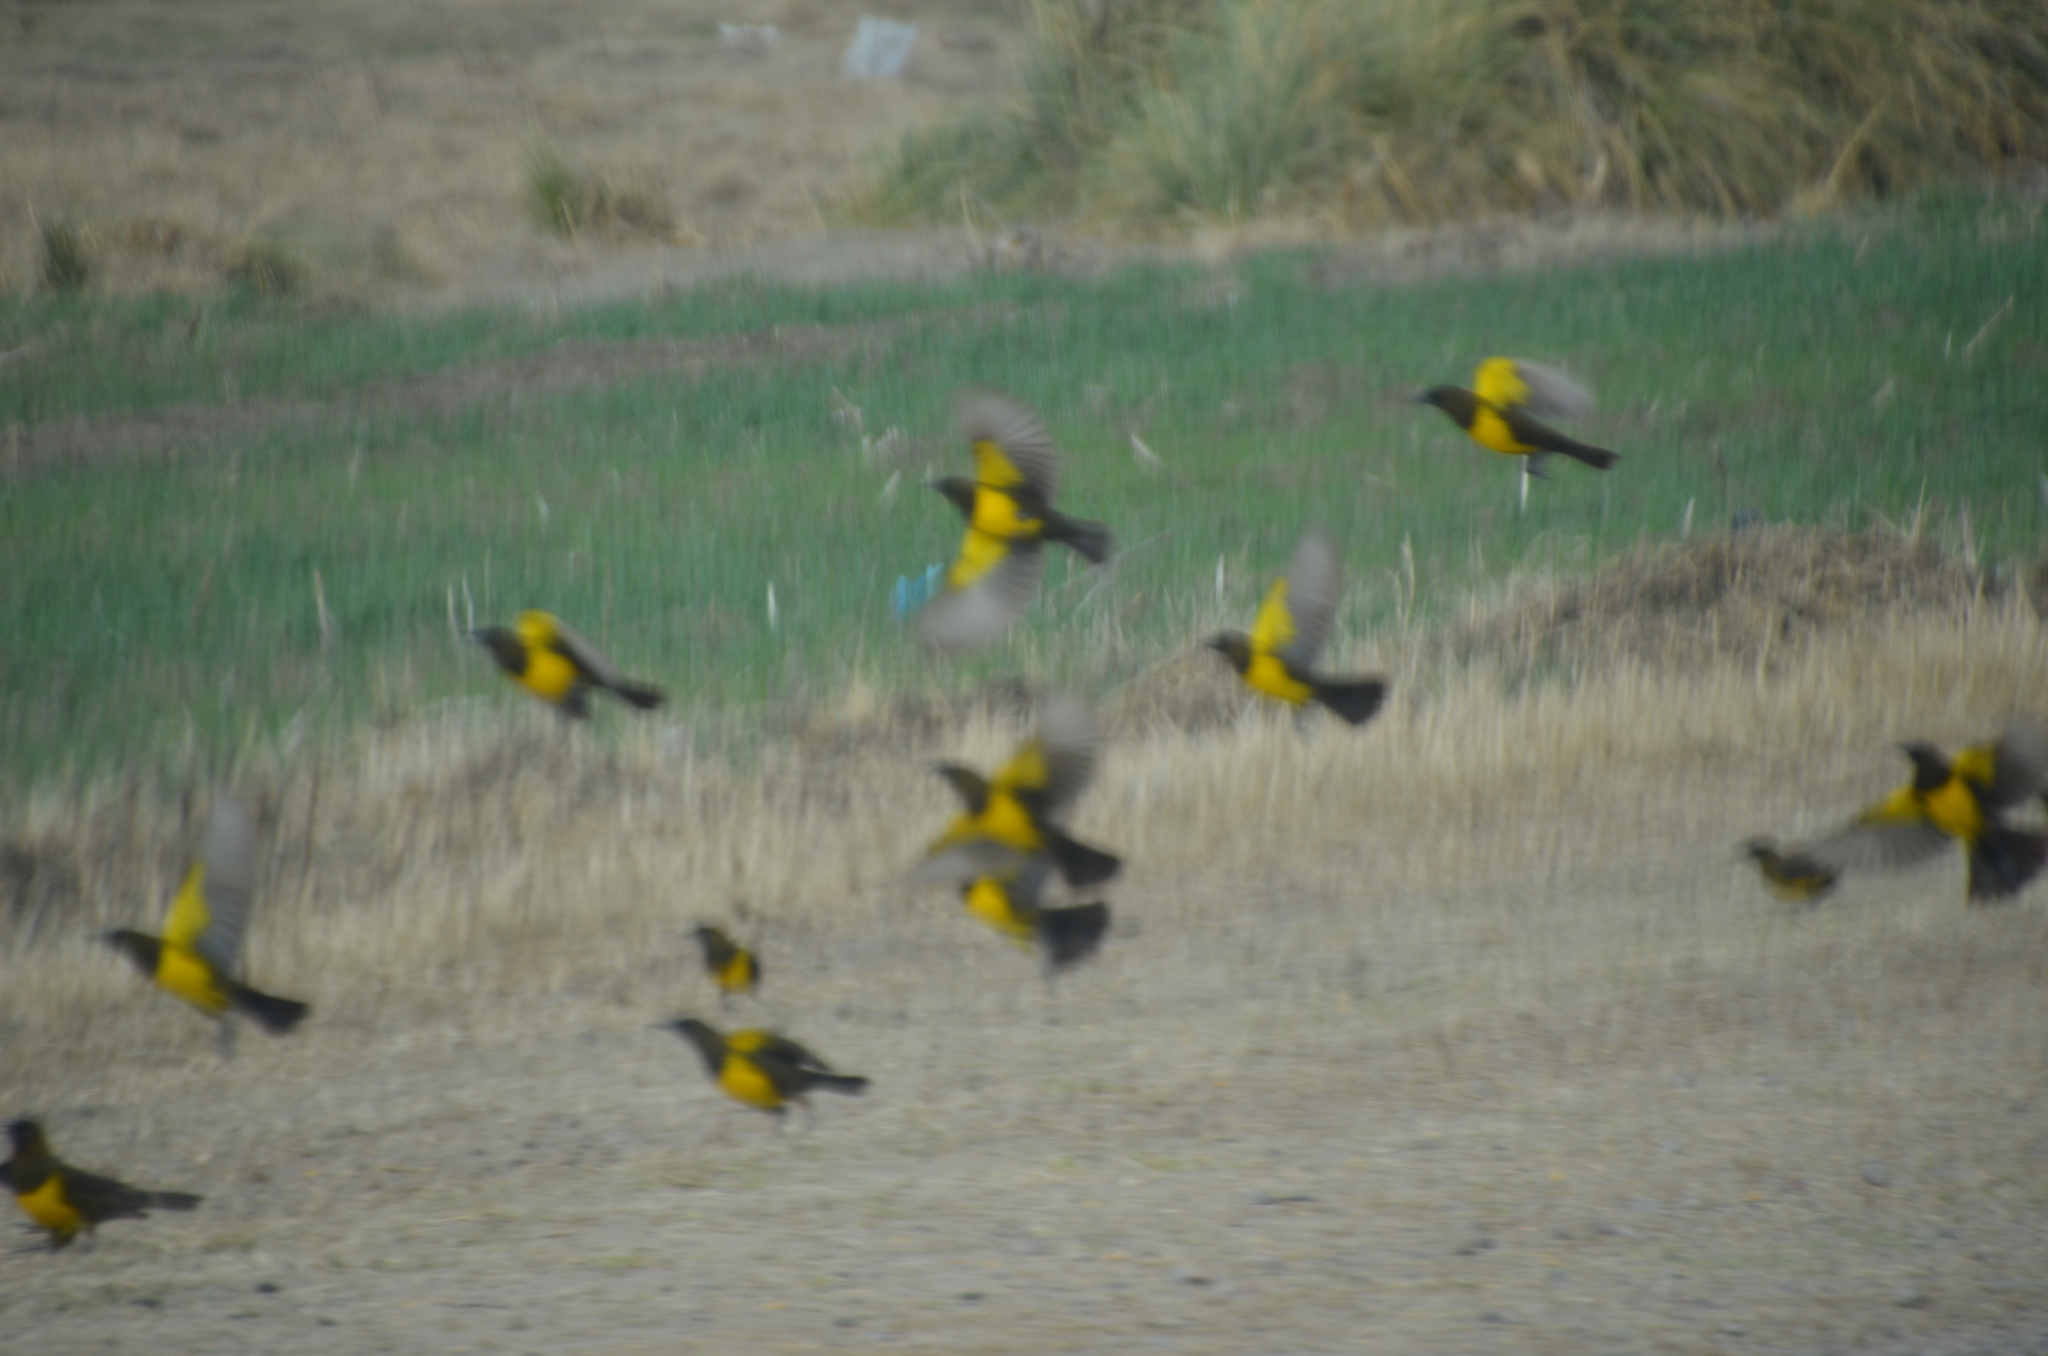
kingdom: Animalia
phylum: Chordata
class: Aves
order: Passeriformes
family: Icteridae
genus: Pseudoleistes
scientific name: Pseudoleistes virescens
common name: Brown-and-yellow marshbird
